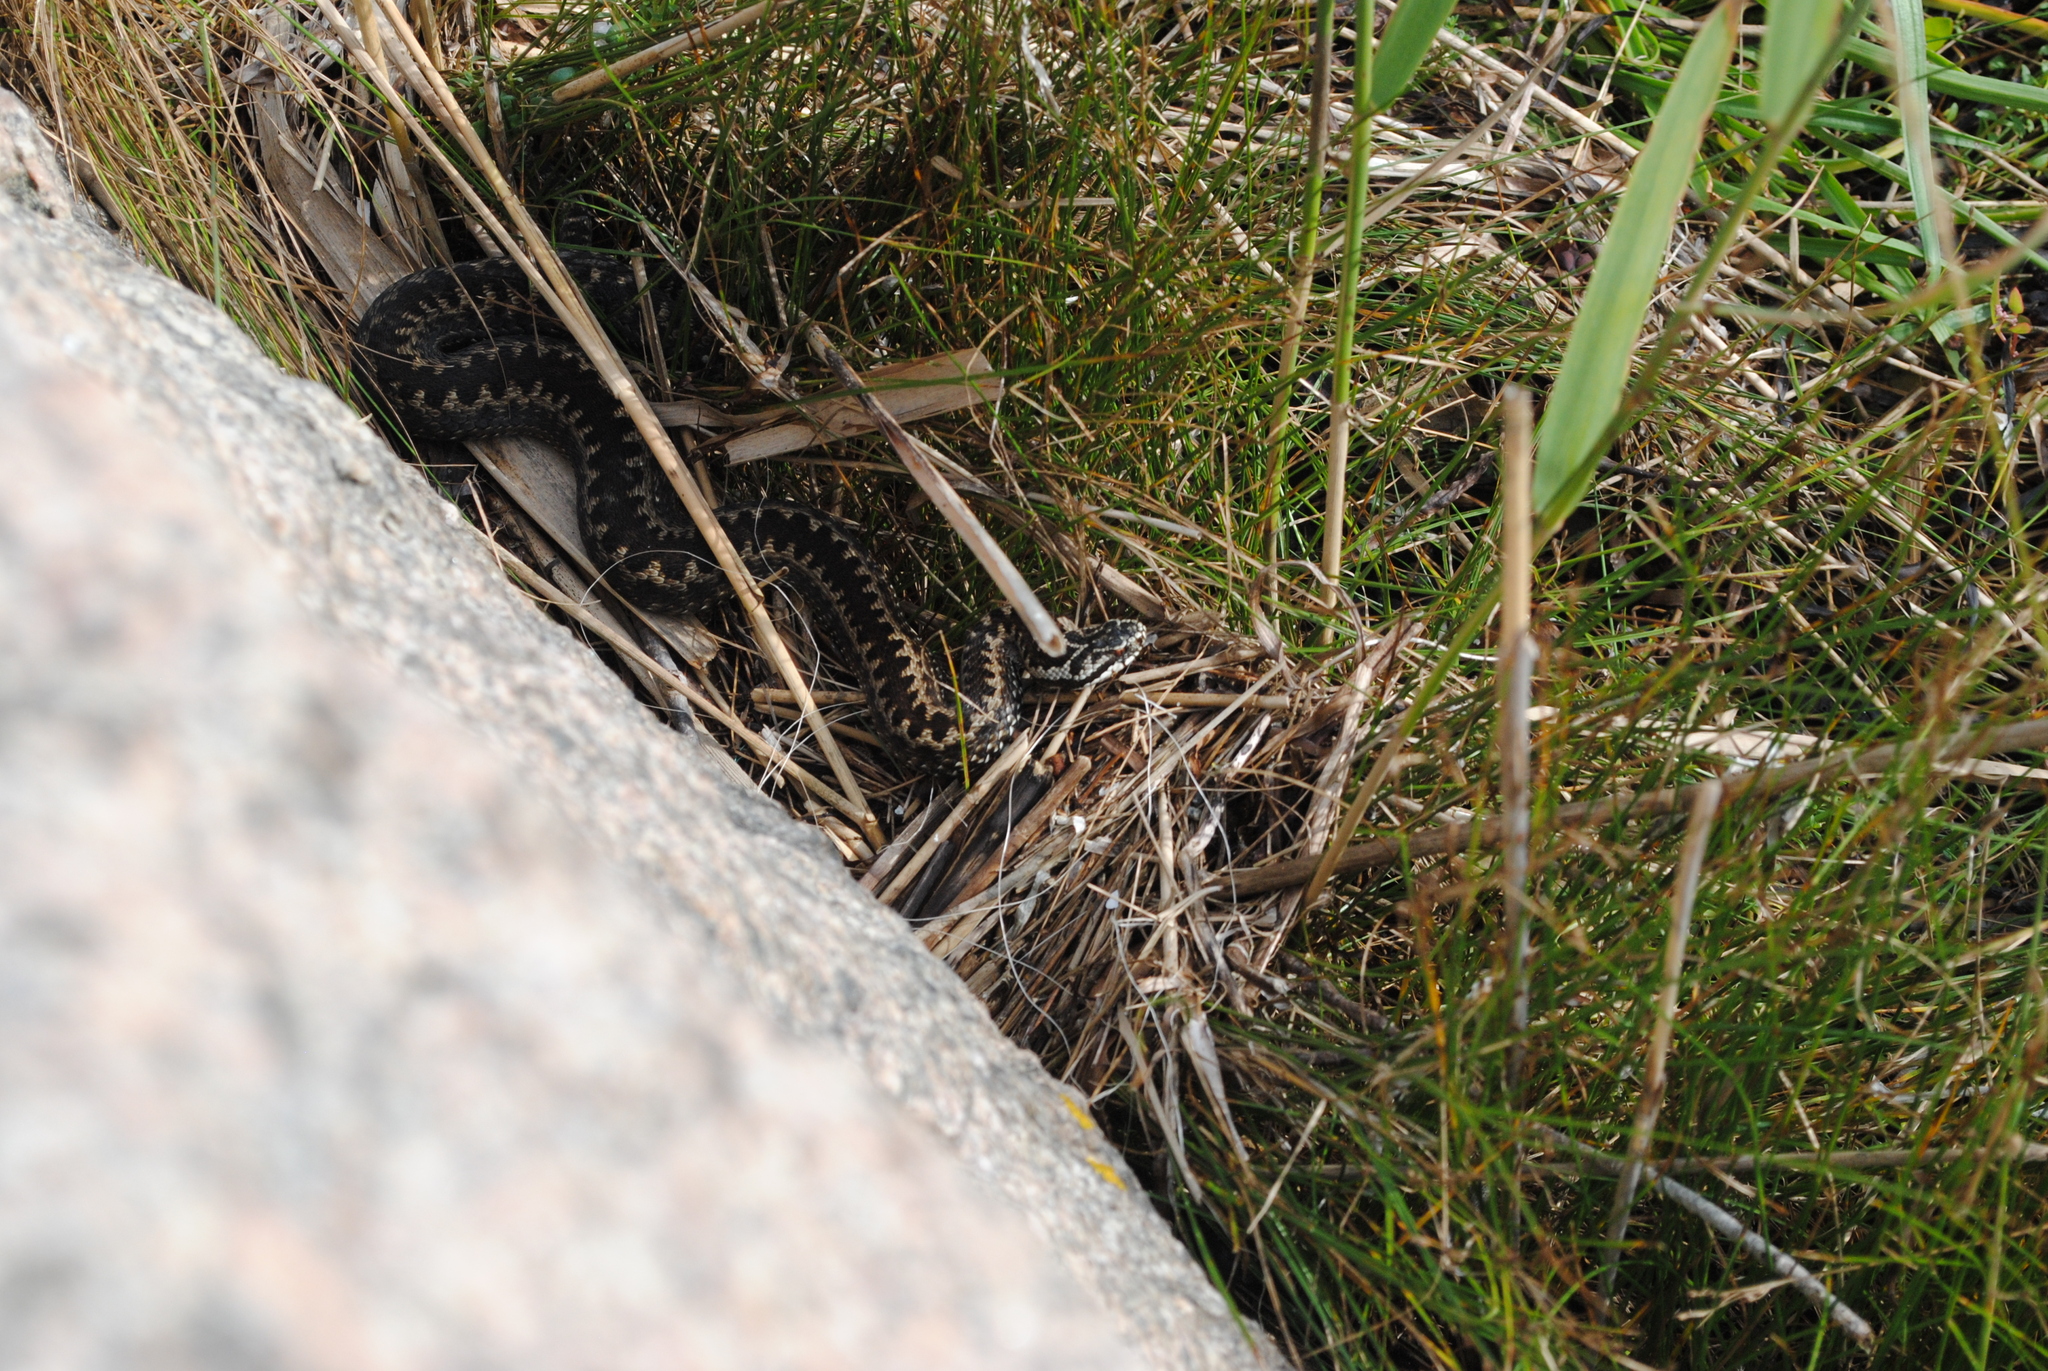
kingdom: Animalia
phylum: Chordata
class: Squamata
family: Viperidae
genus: Vipera
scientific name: Vipera berus
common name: Adder
